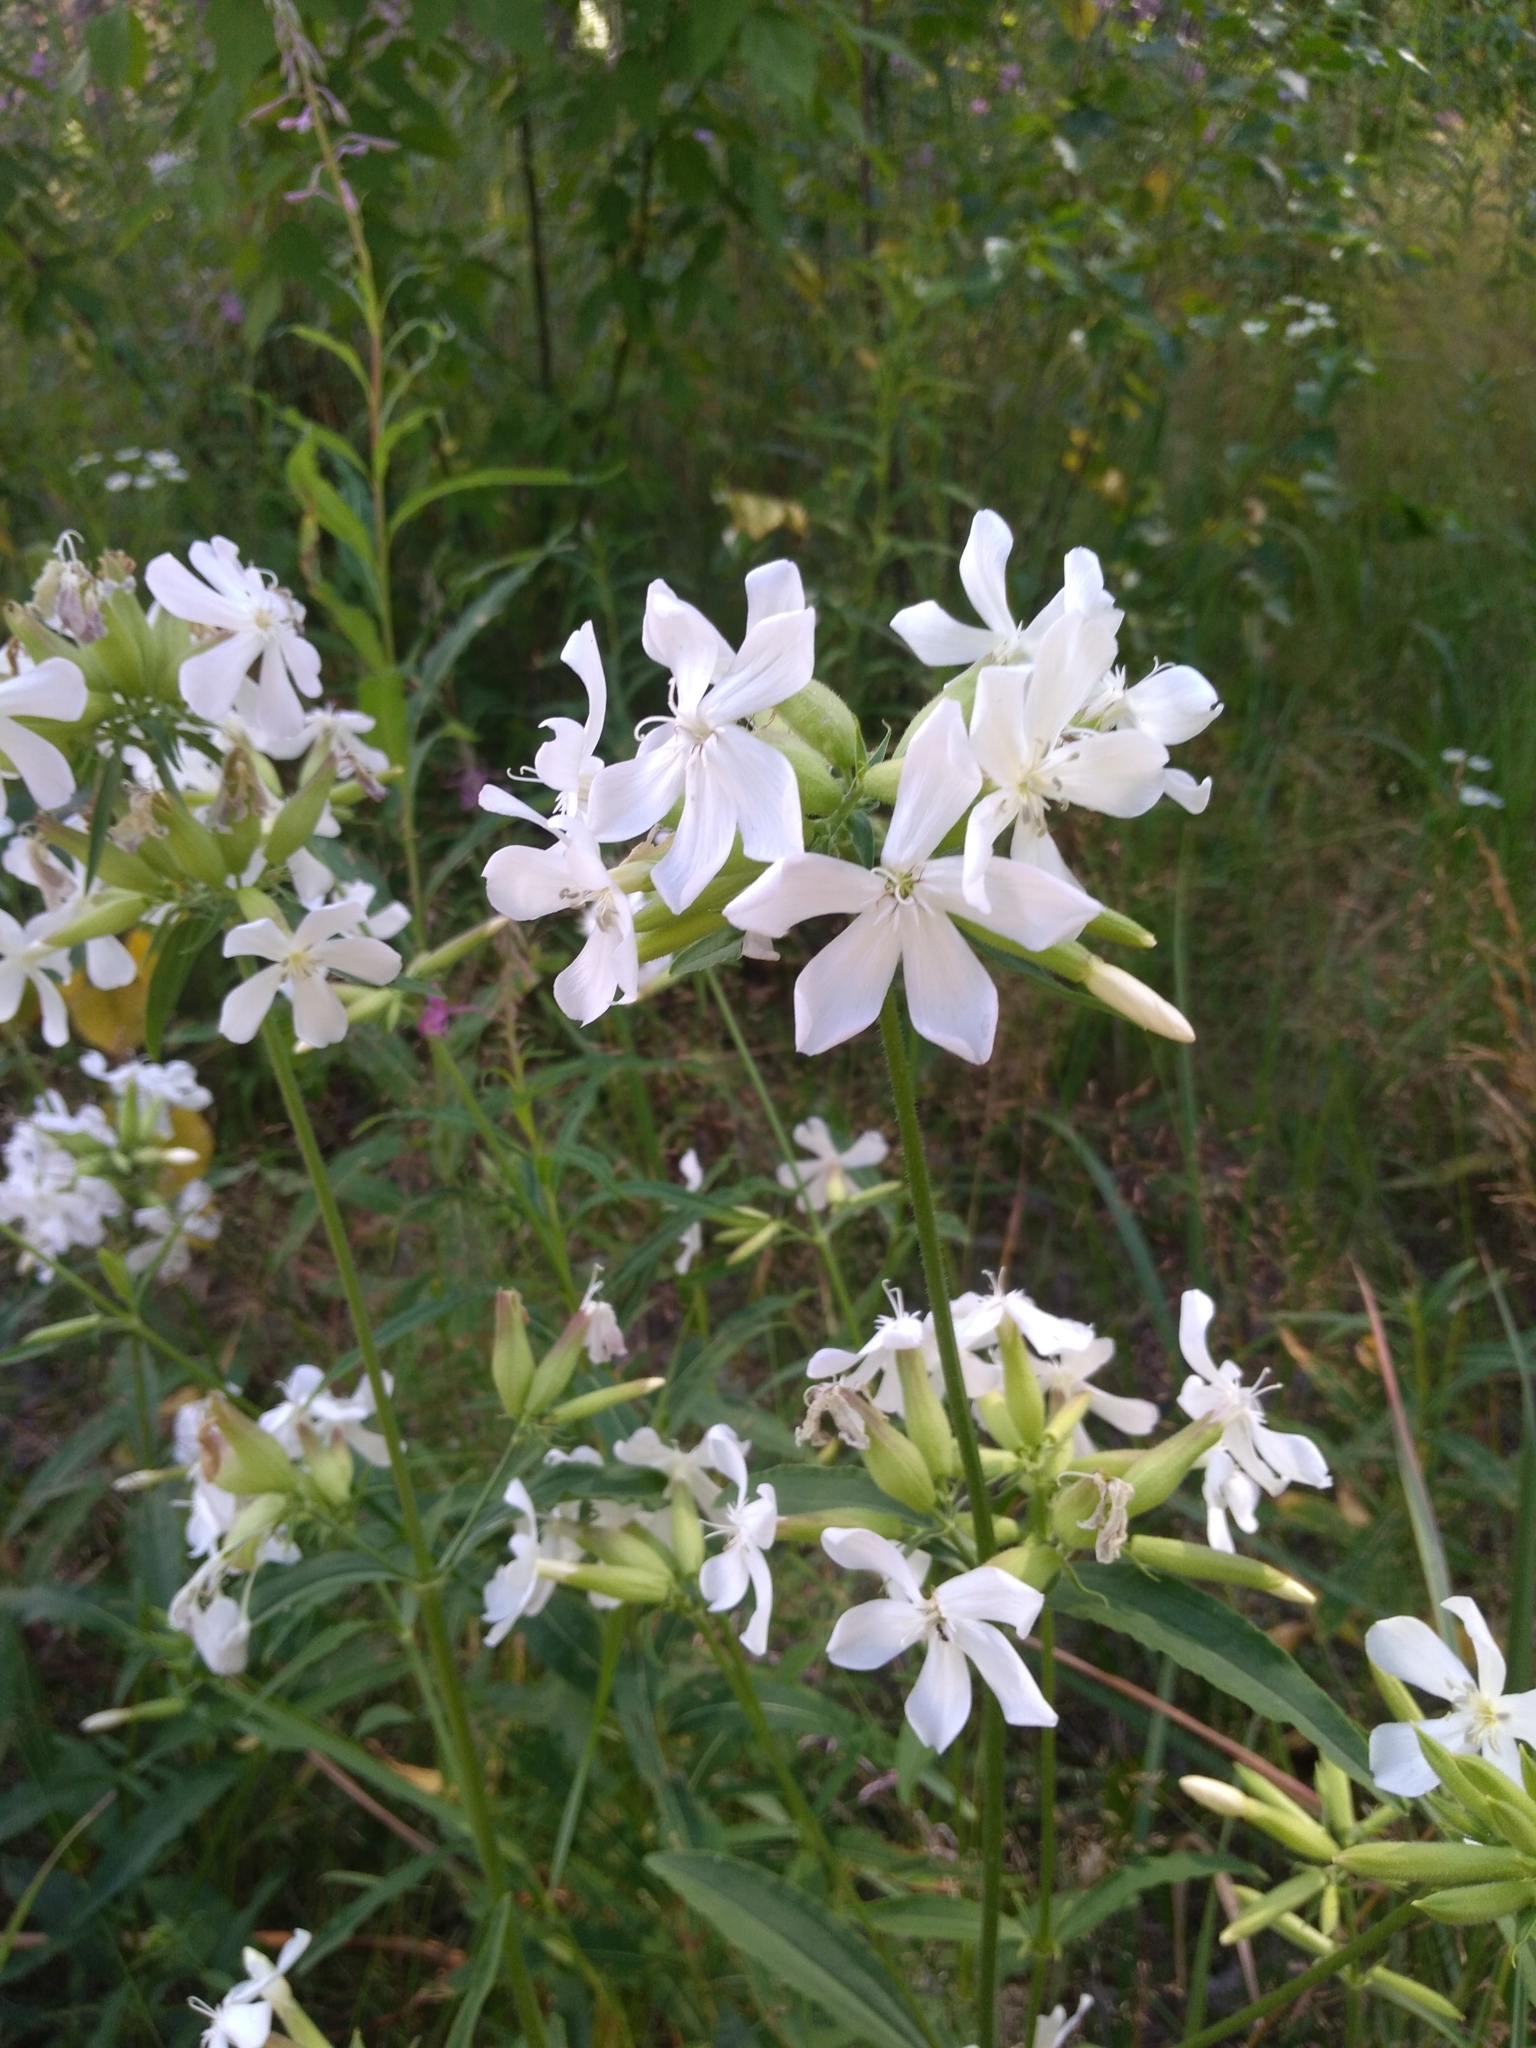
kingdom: Plantae
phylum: Tracheophyta
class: Magnoliopsida
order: Caryophyllales
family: Caryophyllaceae
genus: Saponaria
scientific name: Saponaria officinalis
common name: Soapwort
